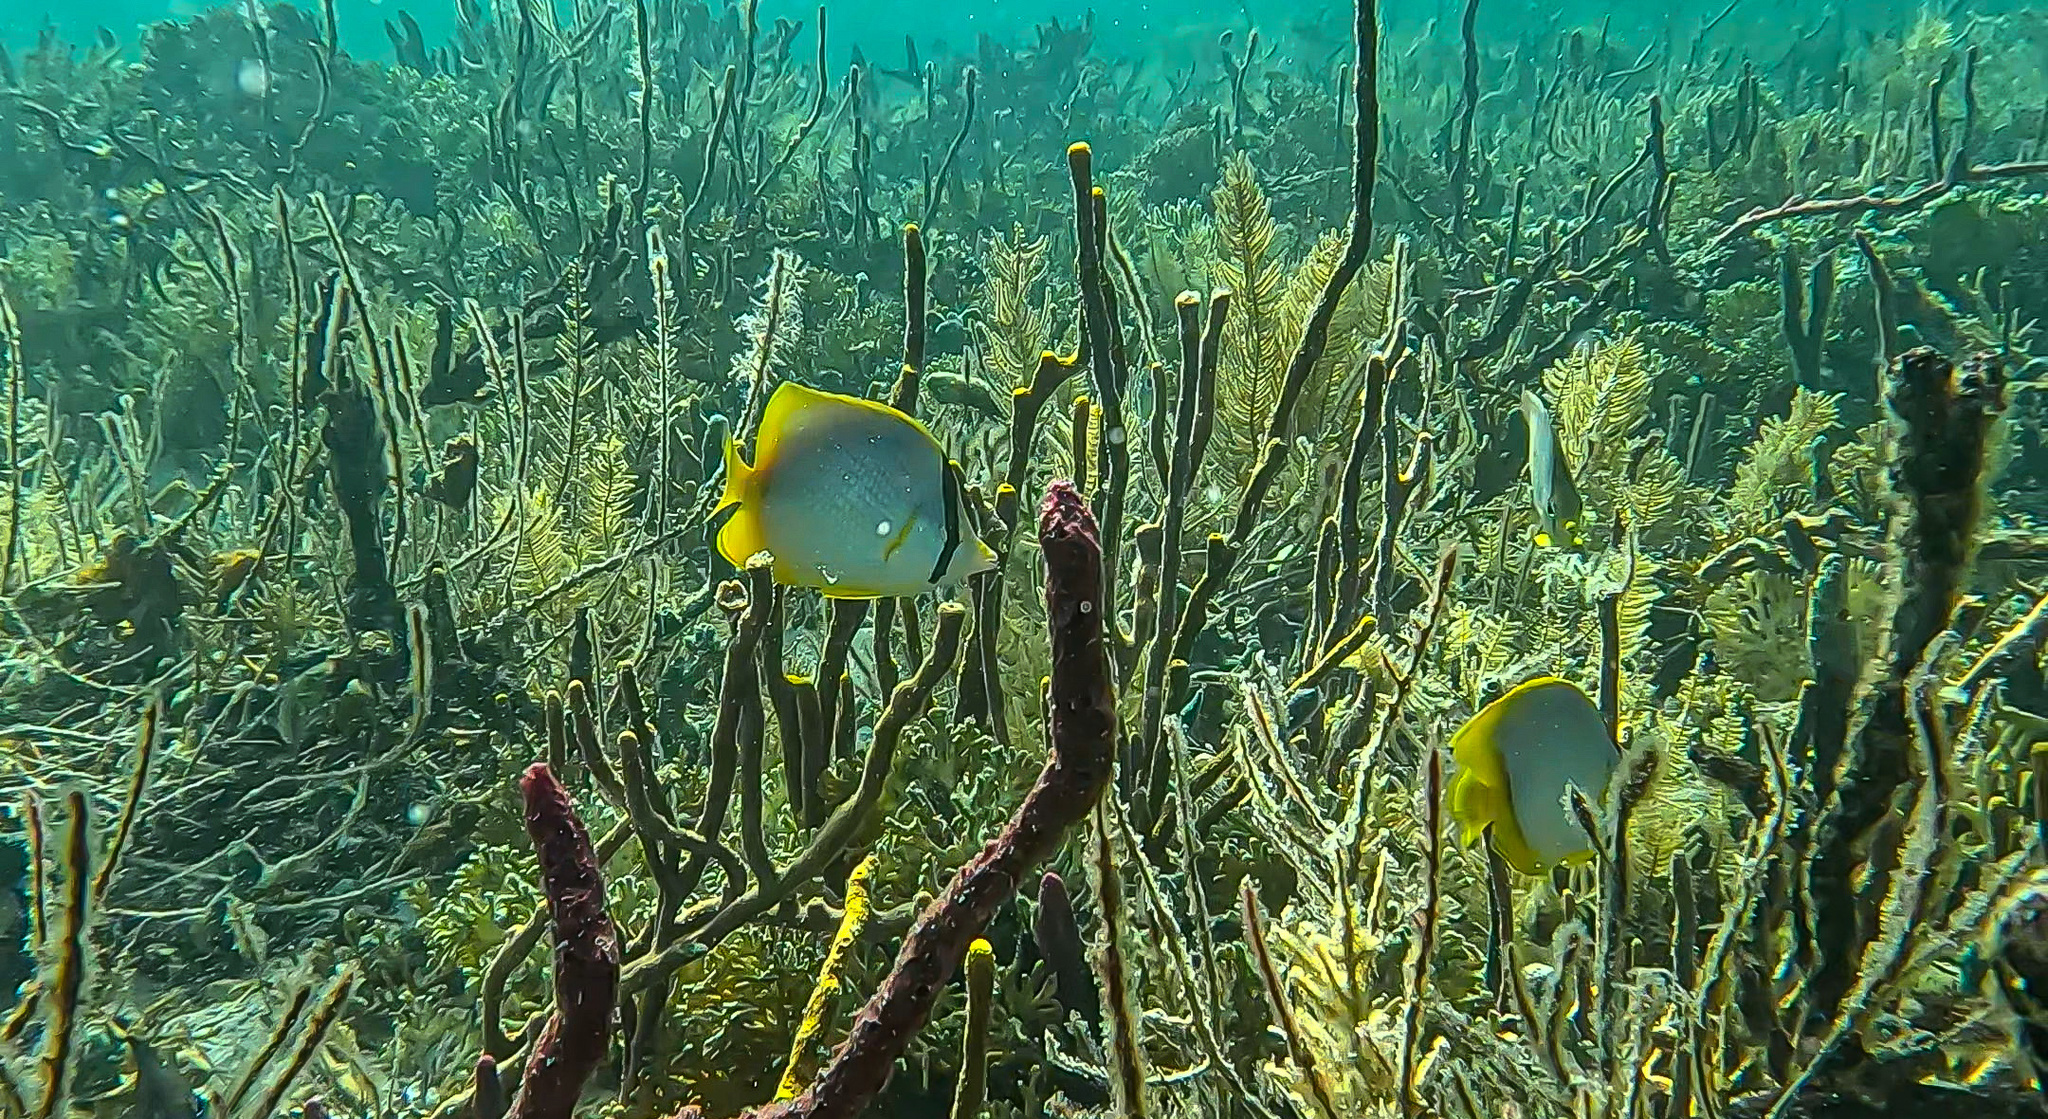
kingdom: Animalia
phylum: Chordata
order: Perciformes
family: Chaetodontidae
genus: Chaetodon
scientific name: Chaetodon ocellatus
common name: Spotfin butterflyfish
